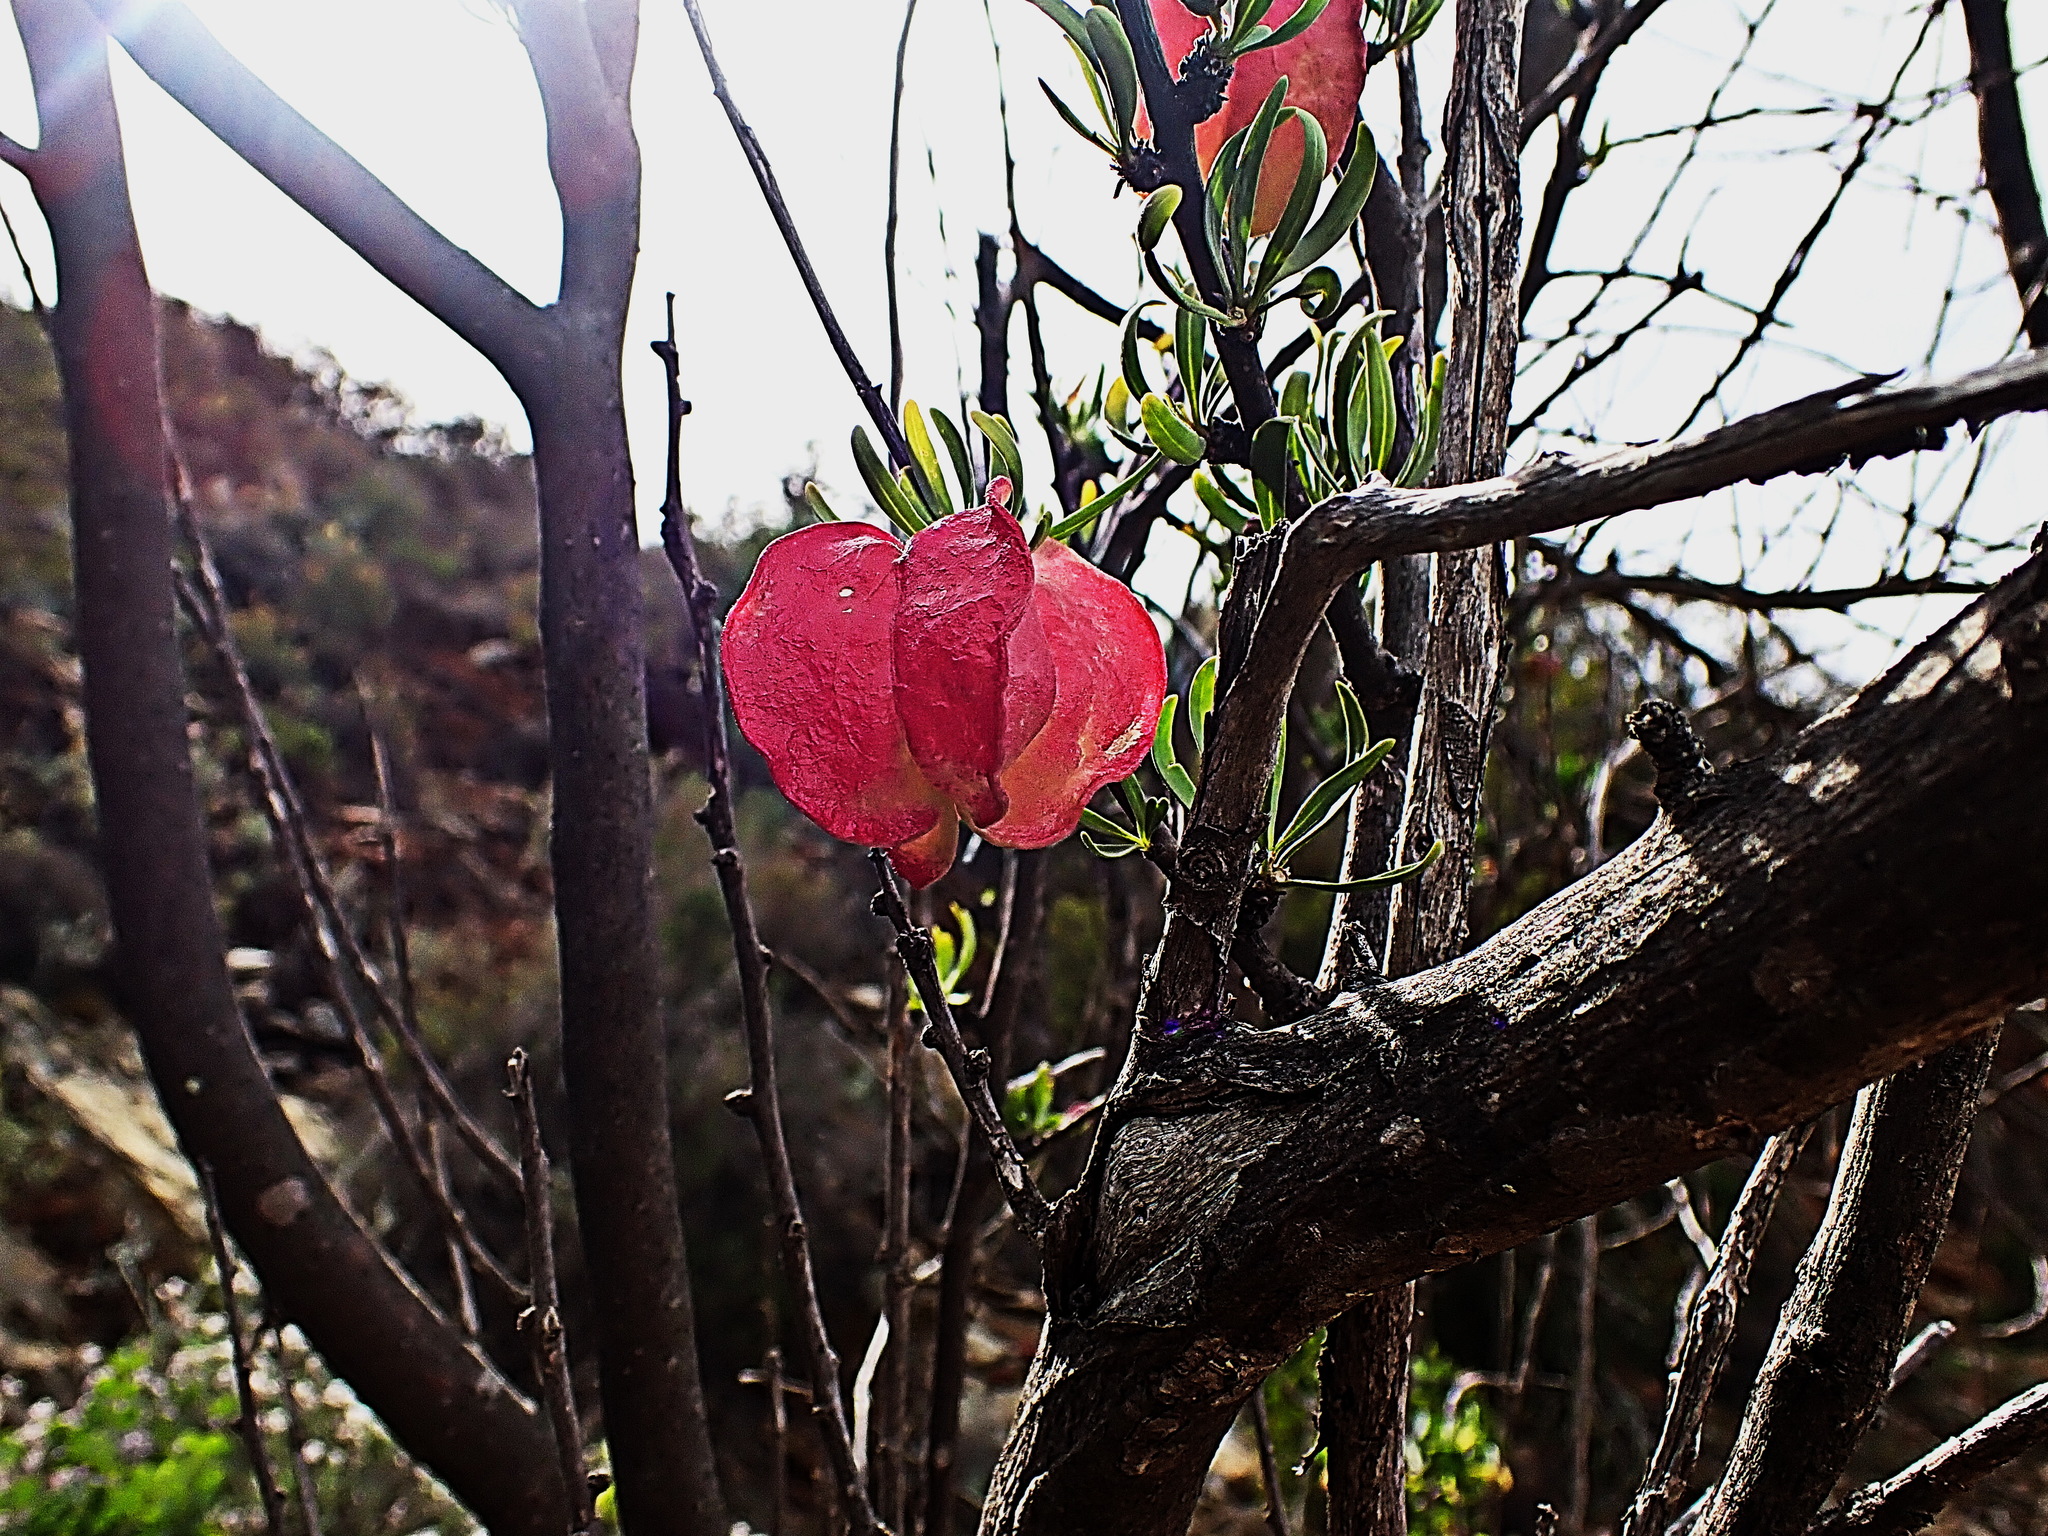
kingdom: Plantae
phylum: Tracheophyta
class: Magnoliopsida
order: Sapindales
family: Meliaceae
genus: Nymania
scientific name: Nymania capensis
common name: Chinese lantern tree
